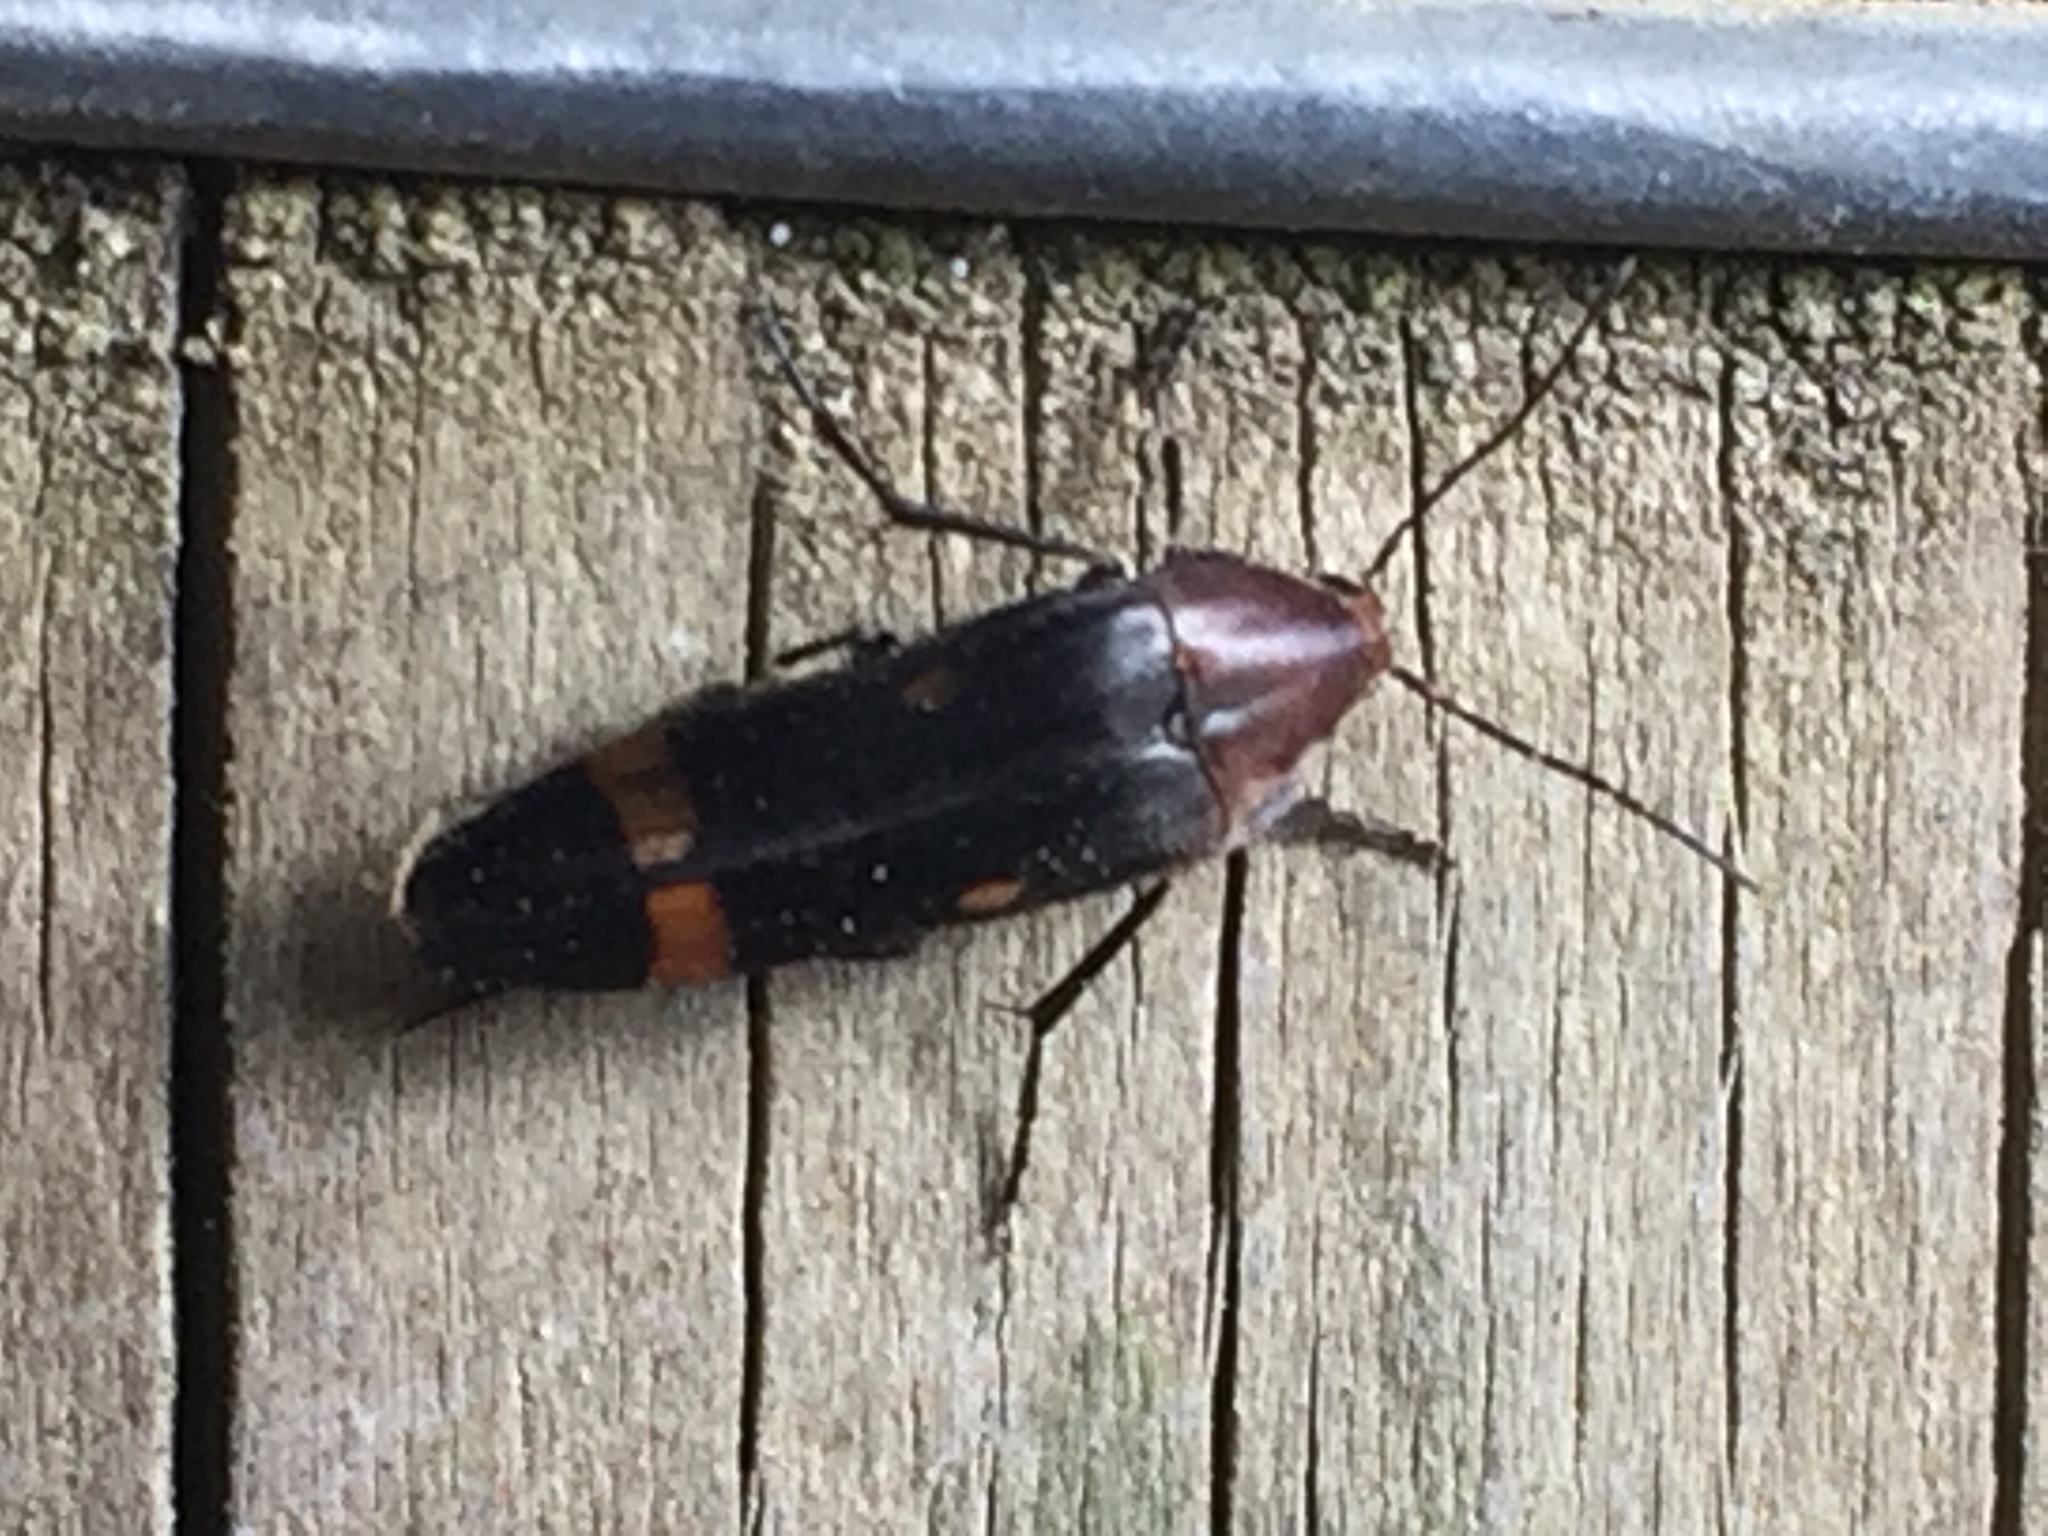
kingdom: Animalia
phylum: Arthropoda
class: Insecta
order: Coleoptera
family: Melandryidae
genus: Ctenoplectron
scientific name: Ctenoplectron
